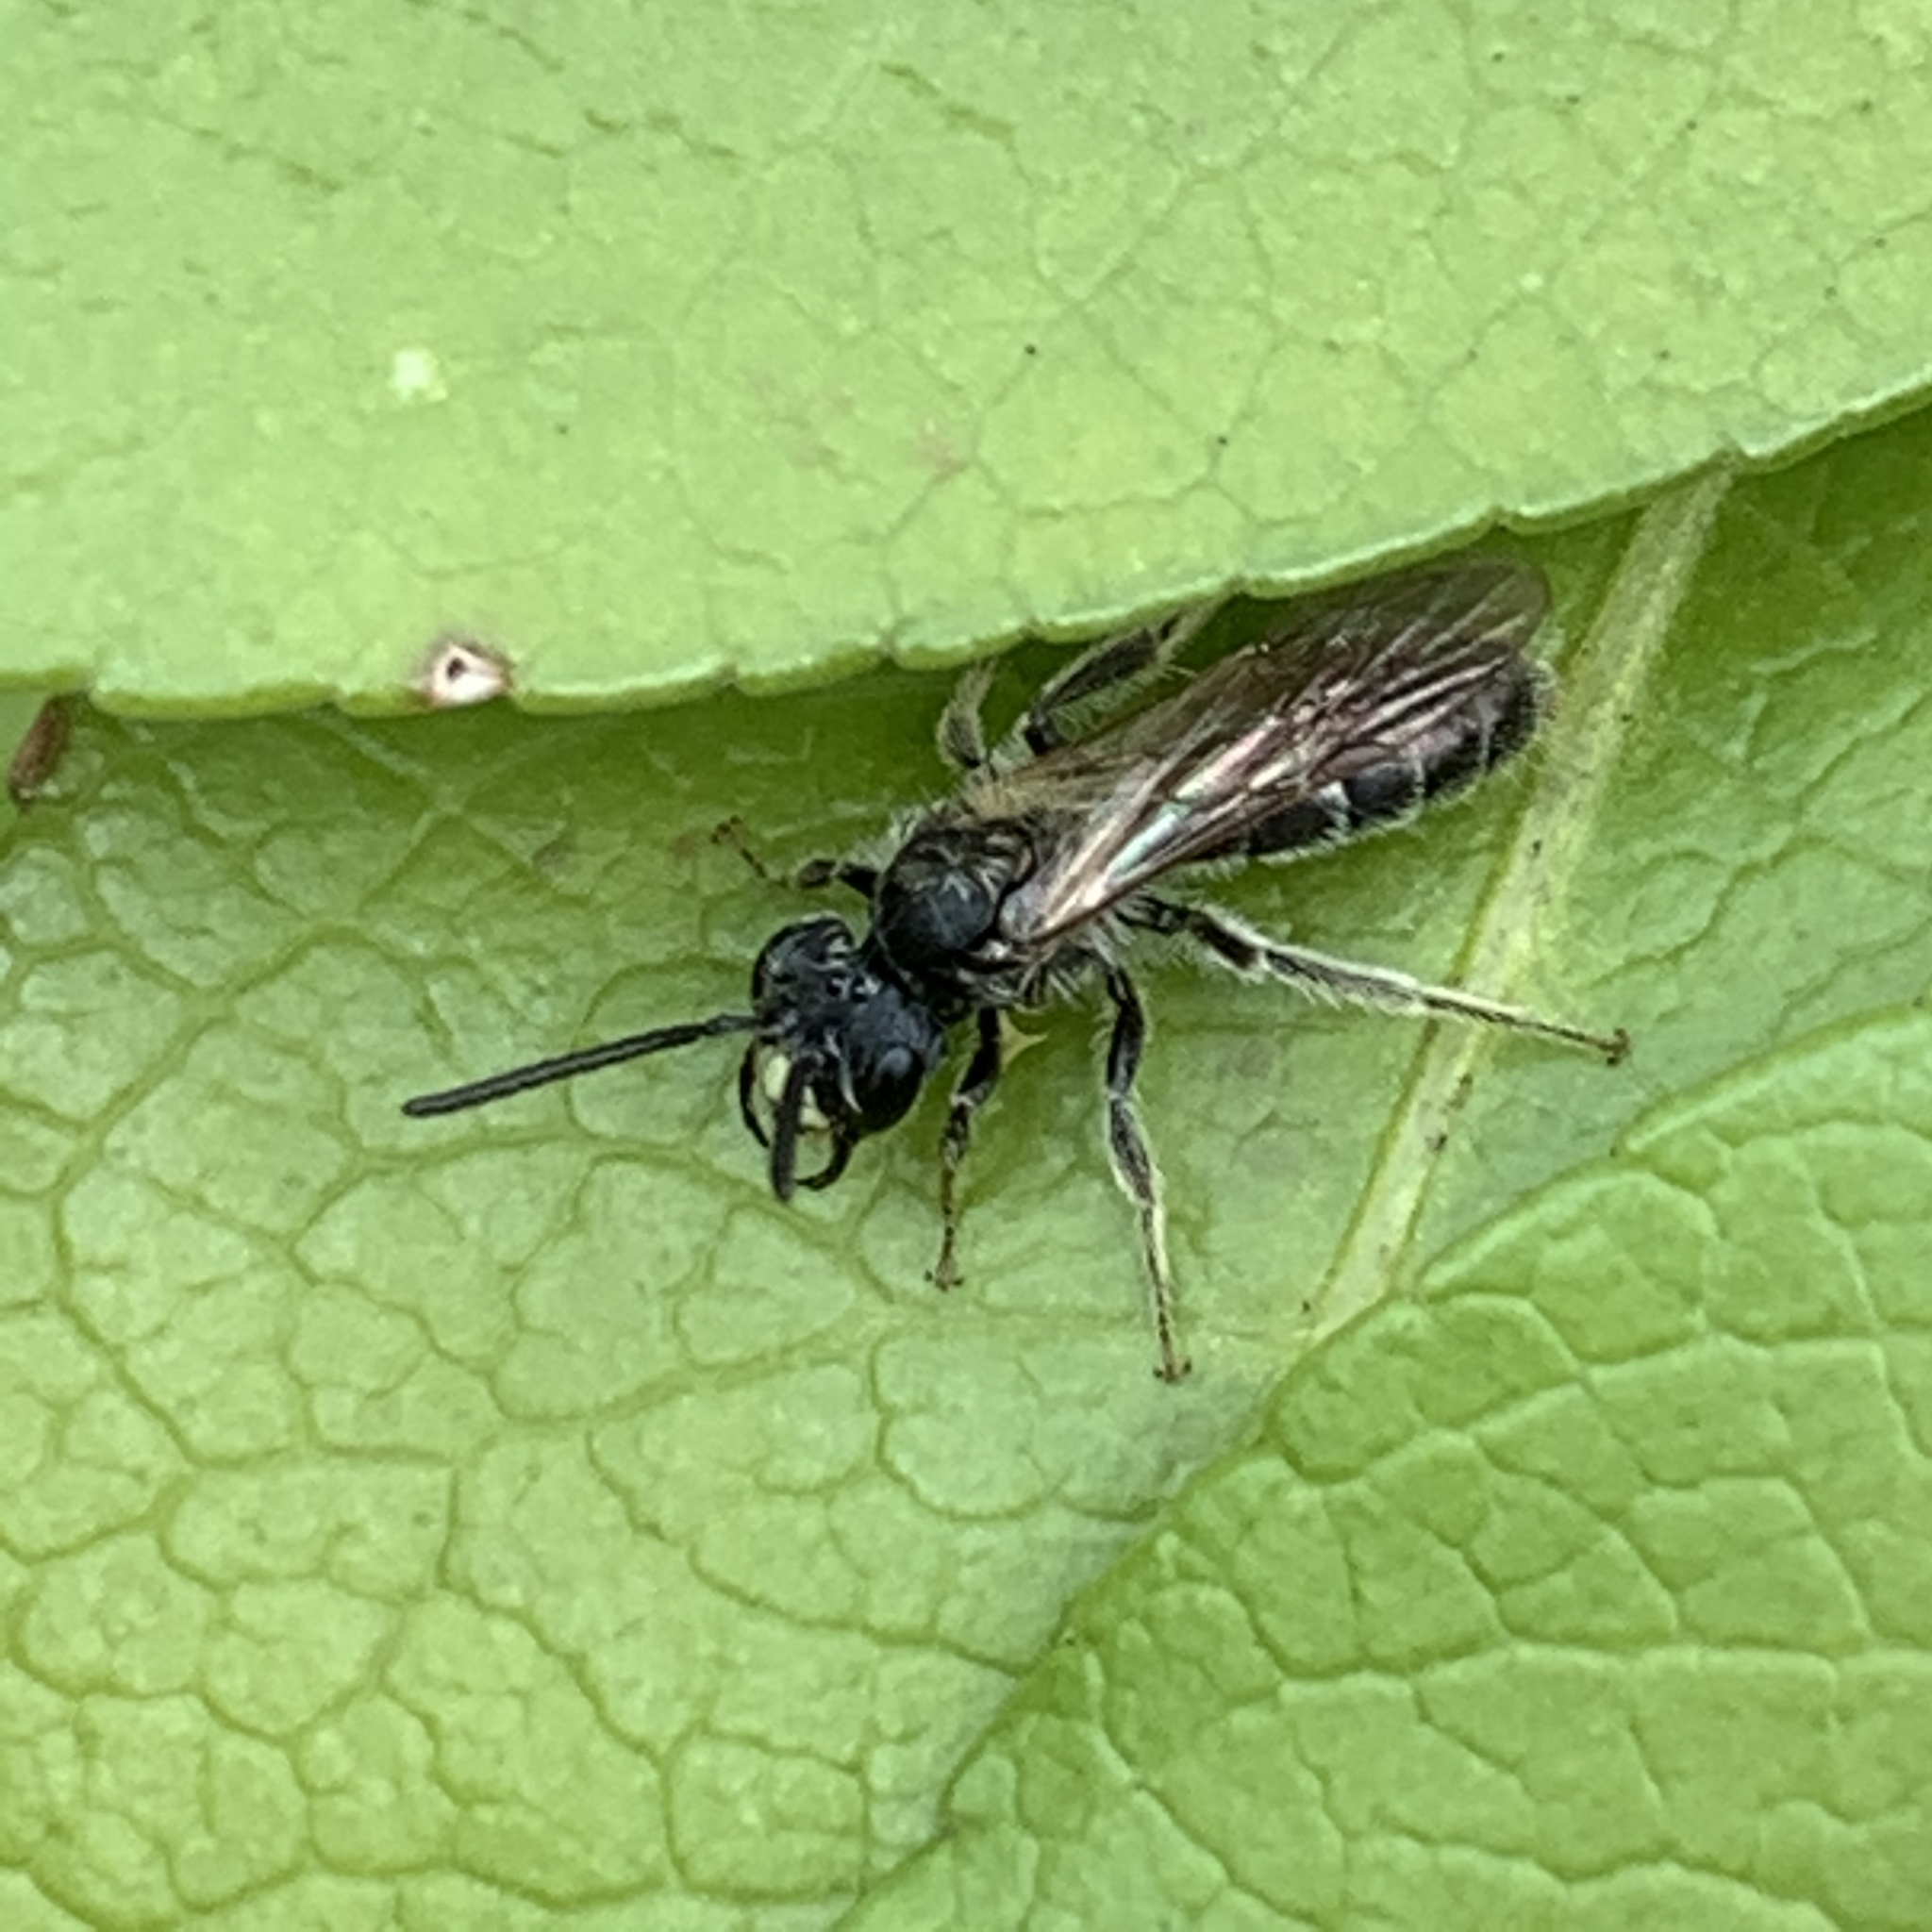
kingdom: Animalia
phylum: Arthropoda
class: Insecta
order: Hymenoptera
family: Andrenidae
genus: Andrena
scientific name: Andrena
